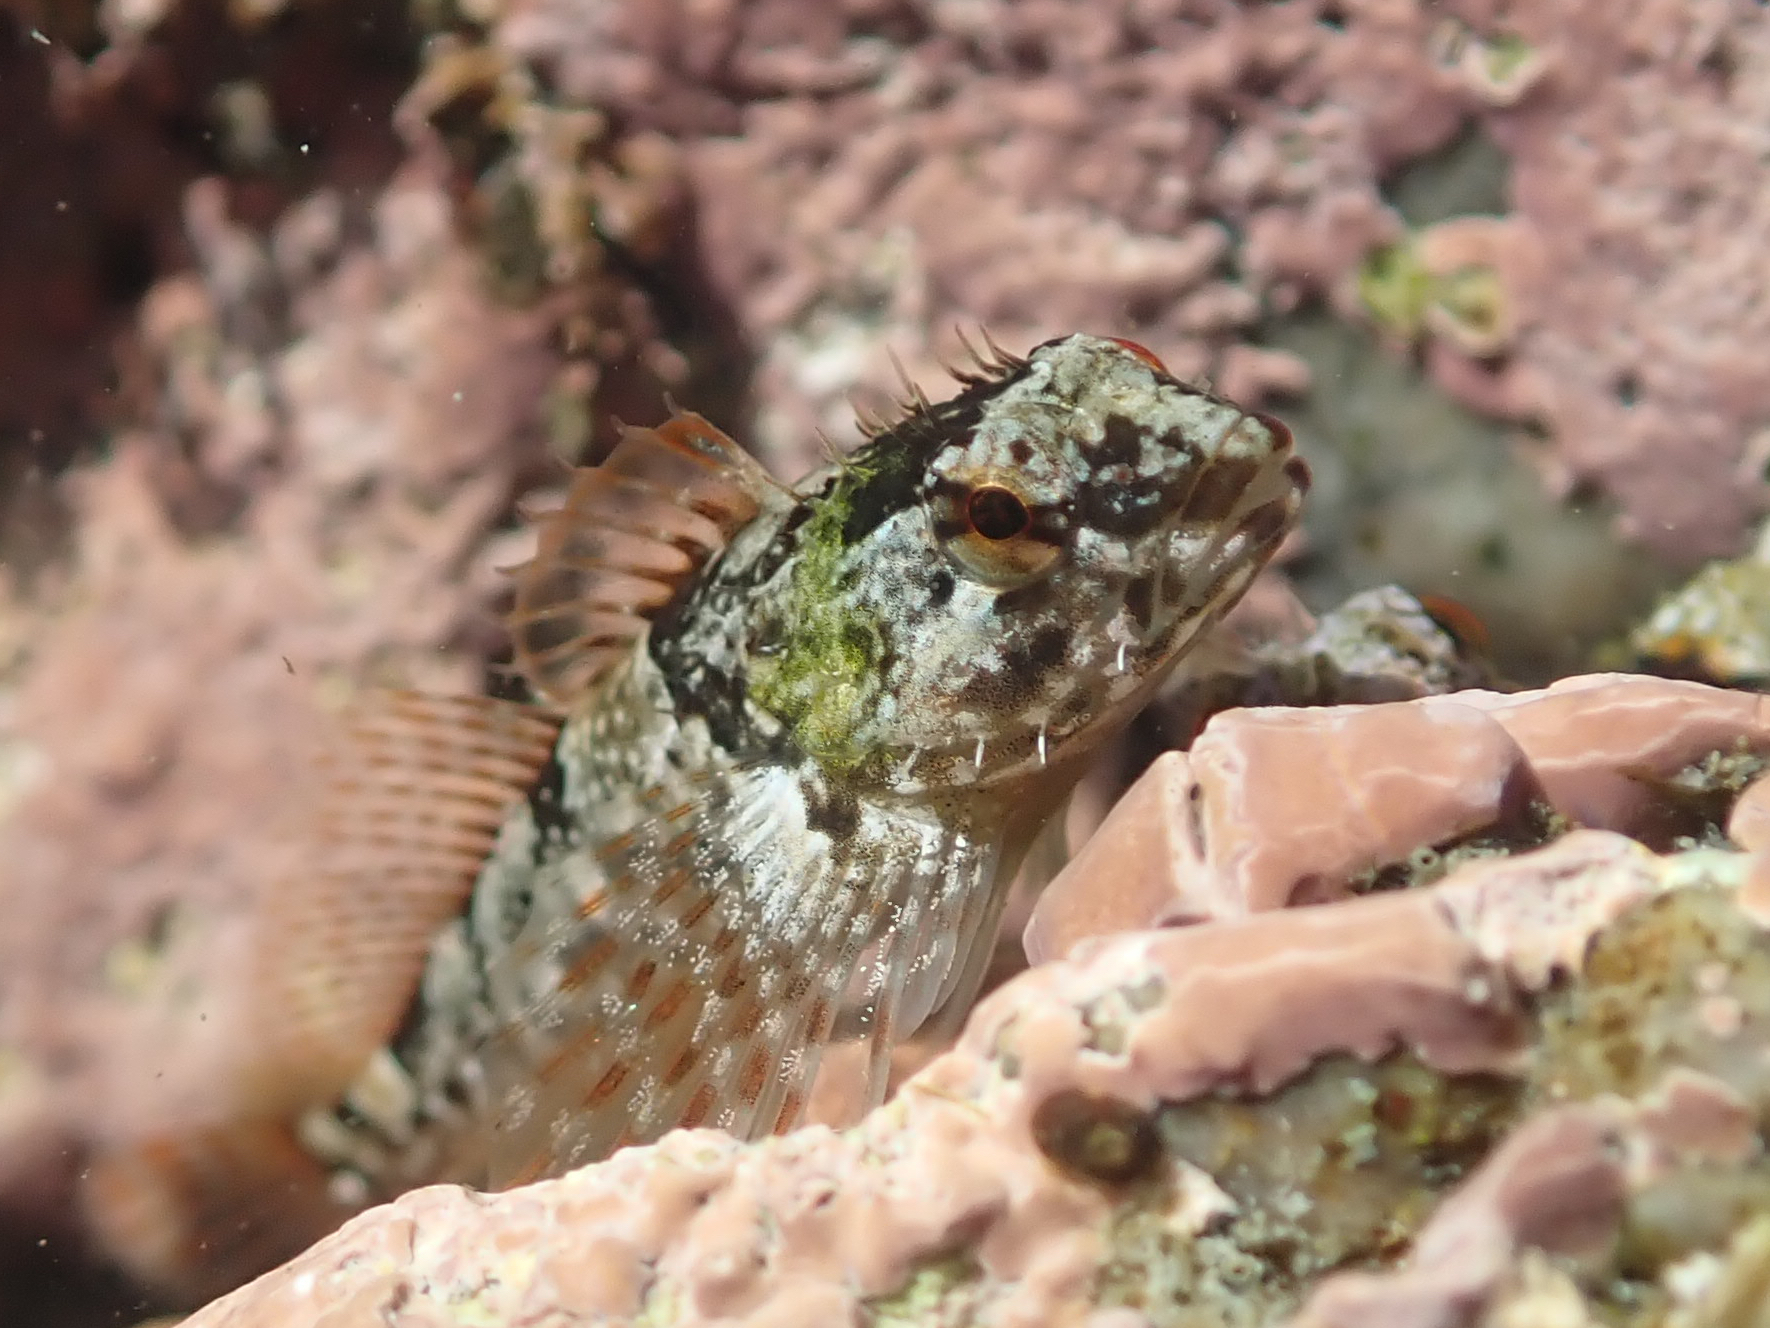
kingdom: Animalia
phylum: Chordata
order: Scorpaeniformes
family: Cottidae
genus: Oligocottus
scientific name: Oligocottus maculosus
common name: Tidepool sculpin
